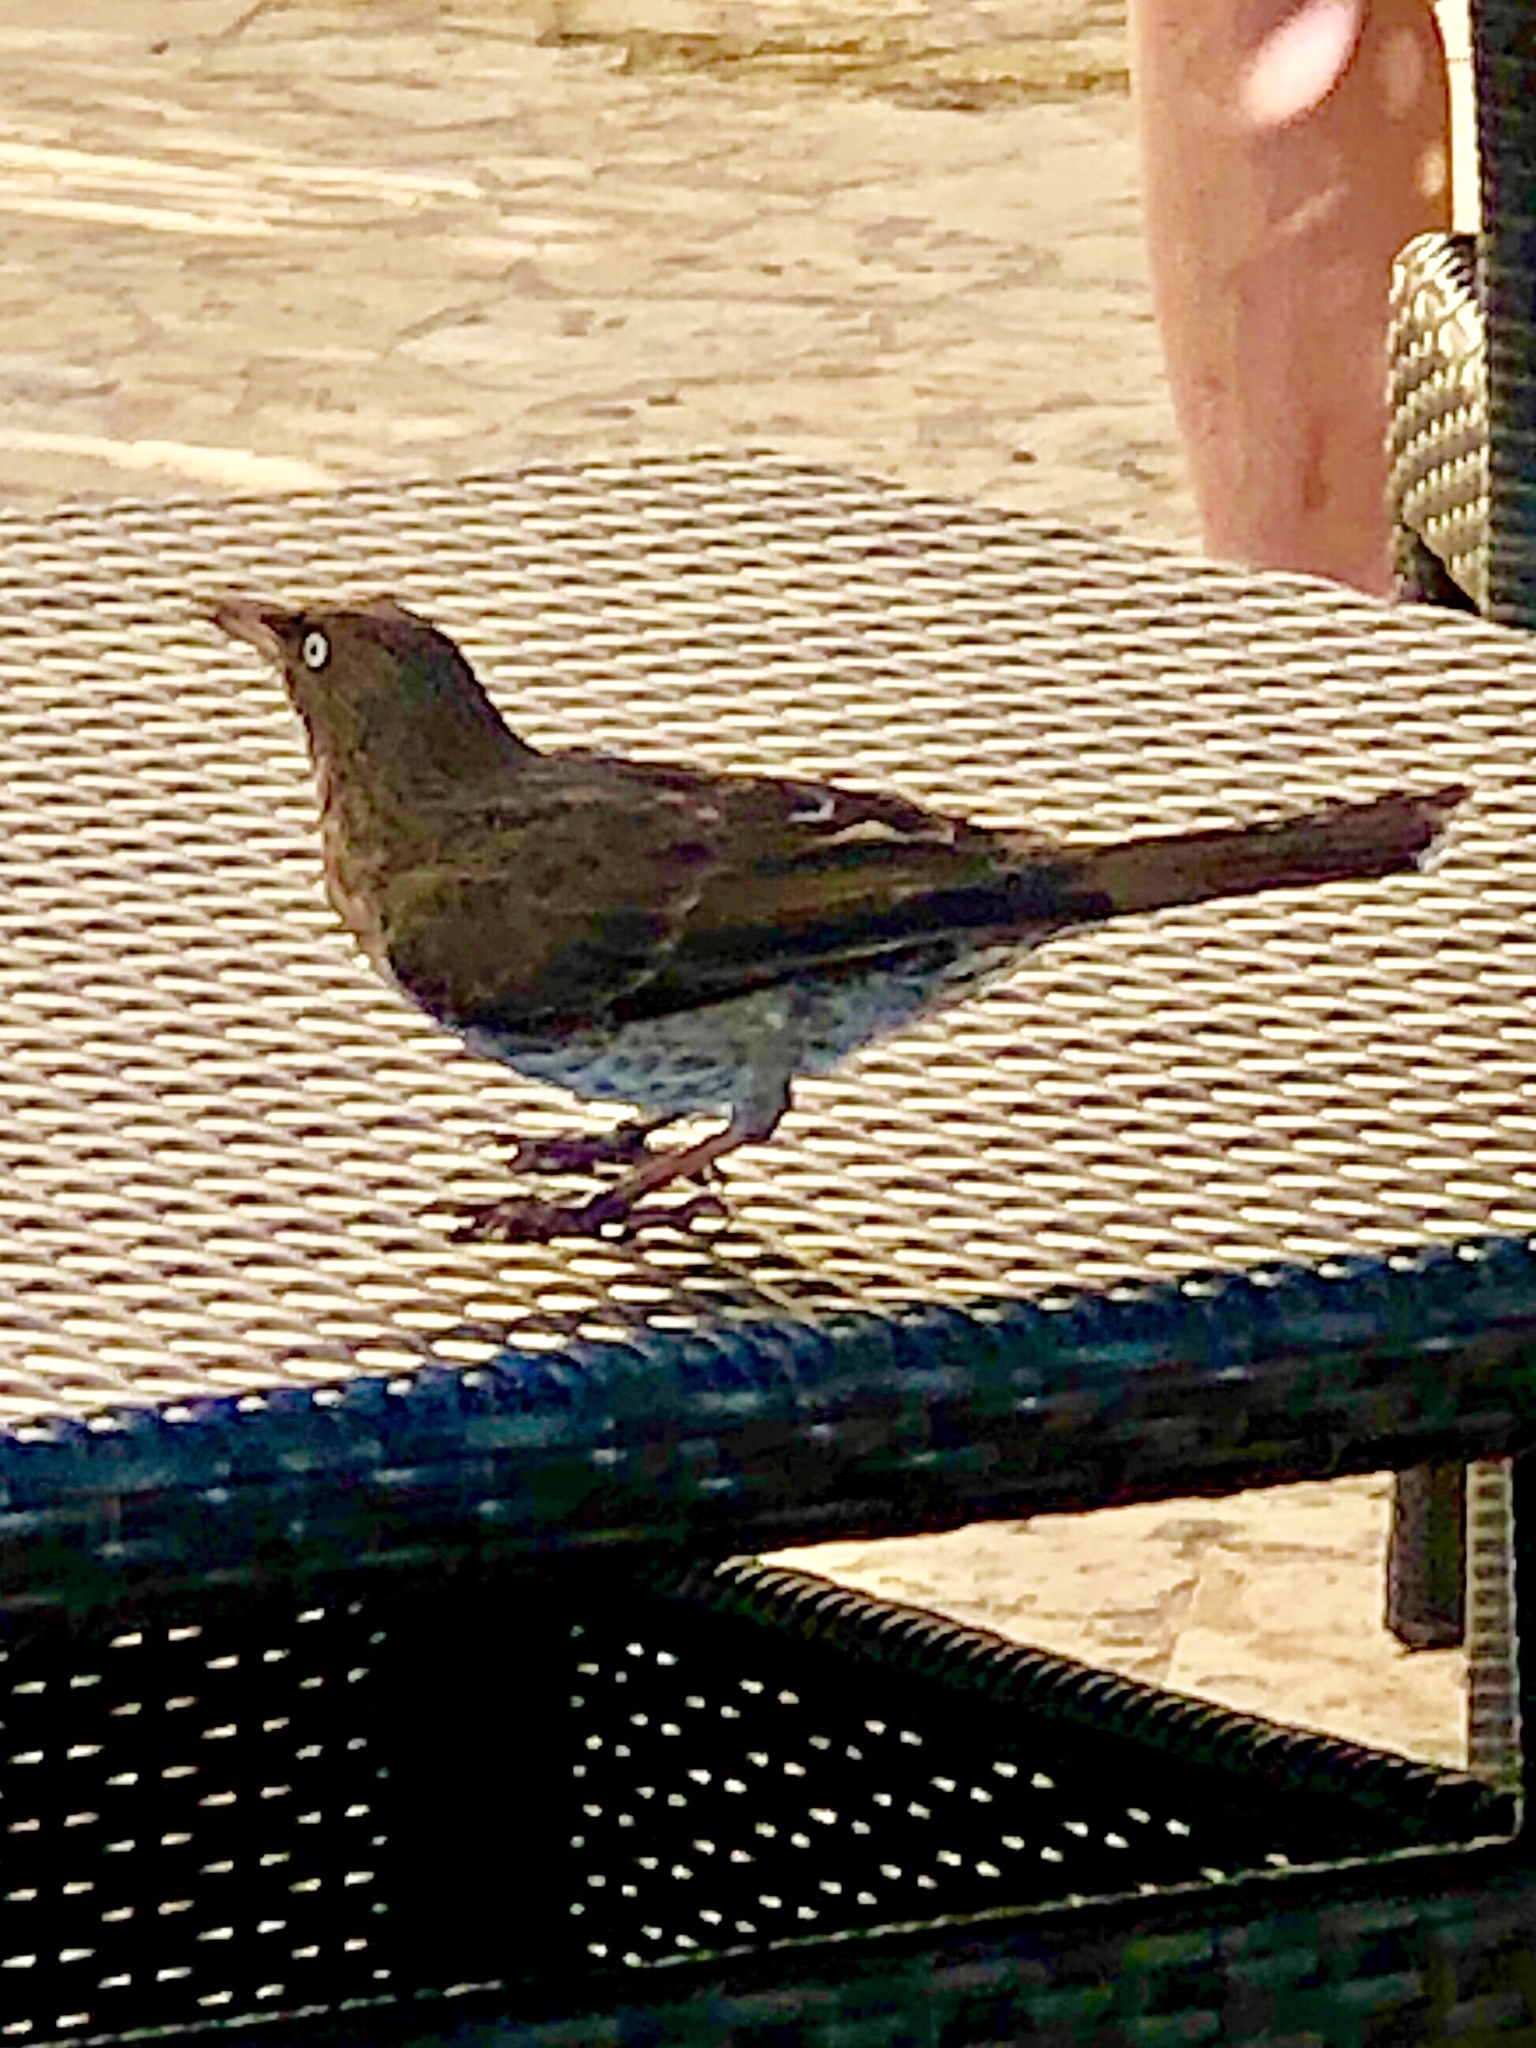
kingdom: Animalia
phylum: Chordata
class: Aves
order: Passeriformes
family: Mimidae
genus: Margarops
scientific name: Margarops fuscatus
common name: Pearly-eyed thrasher
